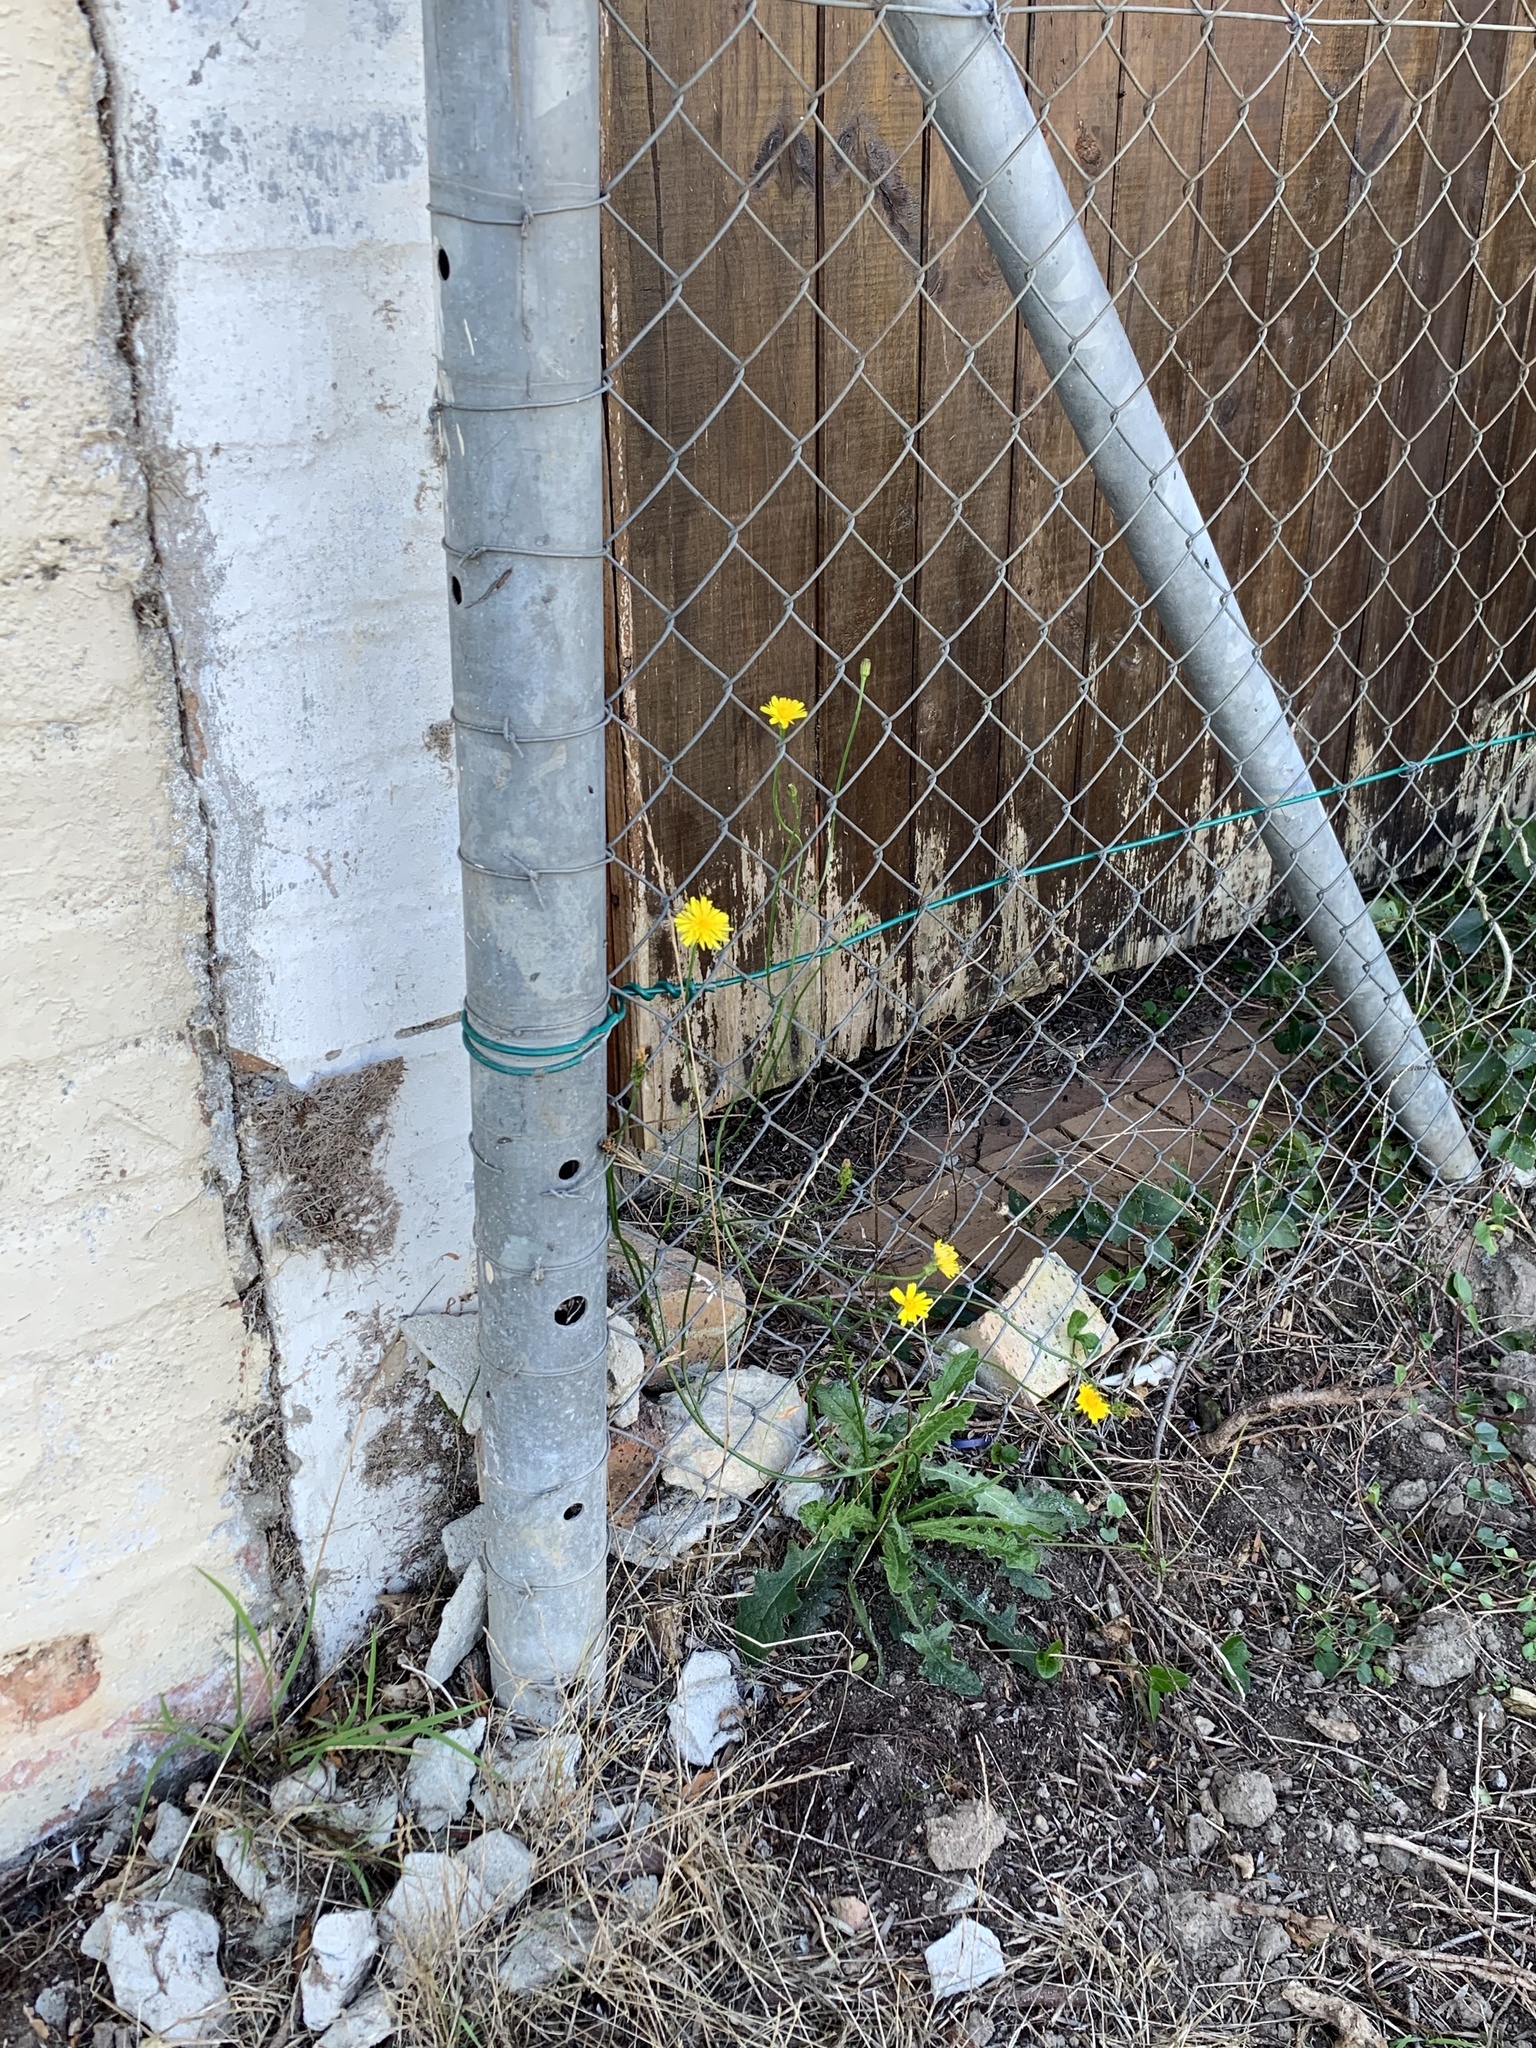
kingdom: Plantae
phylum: Tracheophyta
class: Magnoliopsida
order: Asterales
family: Asteraceae
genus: Hypochaeris
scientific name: Hypochaeris radicata
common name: Flatweed
